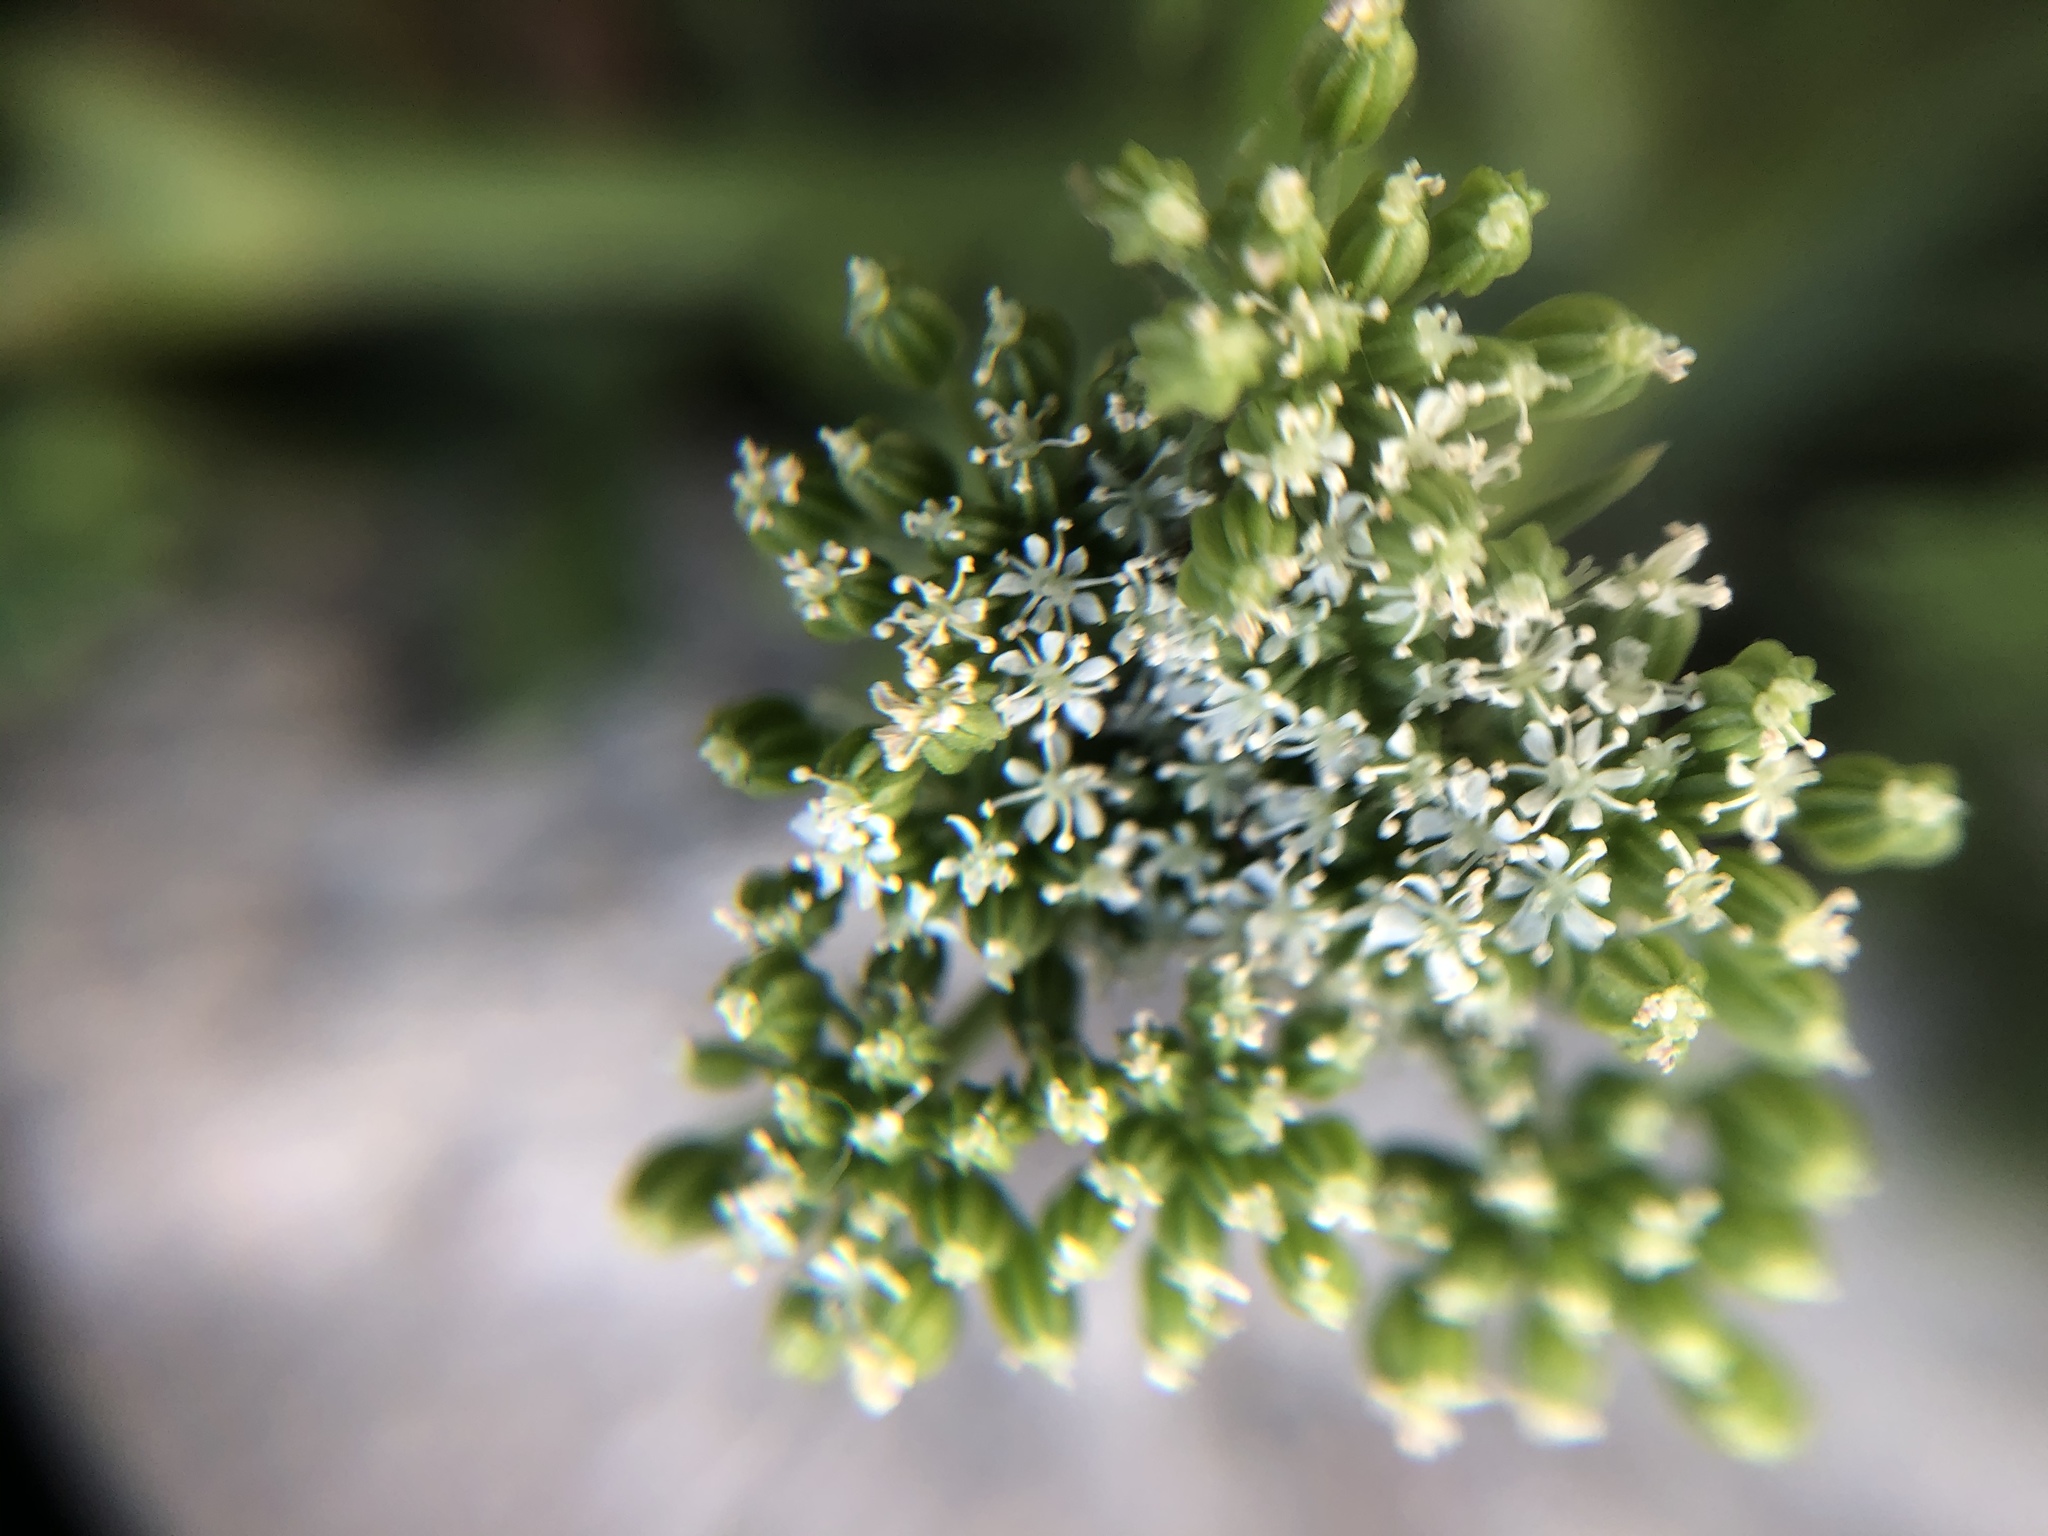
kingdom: Plantae
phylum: Tracheophyta
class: Magnoliopsida
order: Apiales
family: Apiaceae
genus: Cnidium
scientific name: Cnidium monnieri
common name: Monnier's snowparsley
